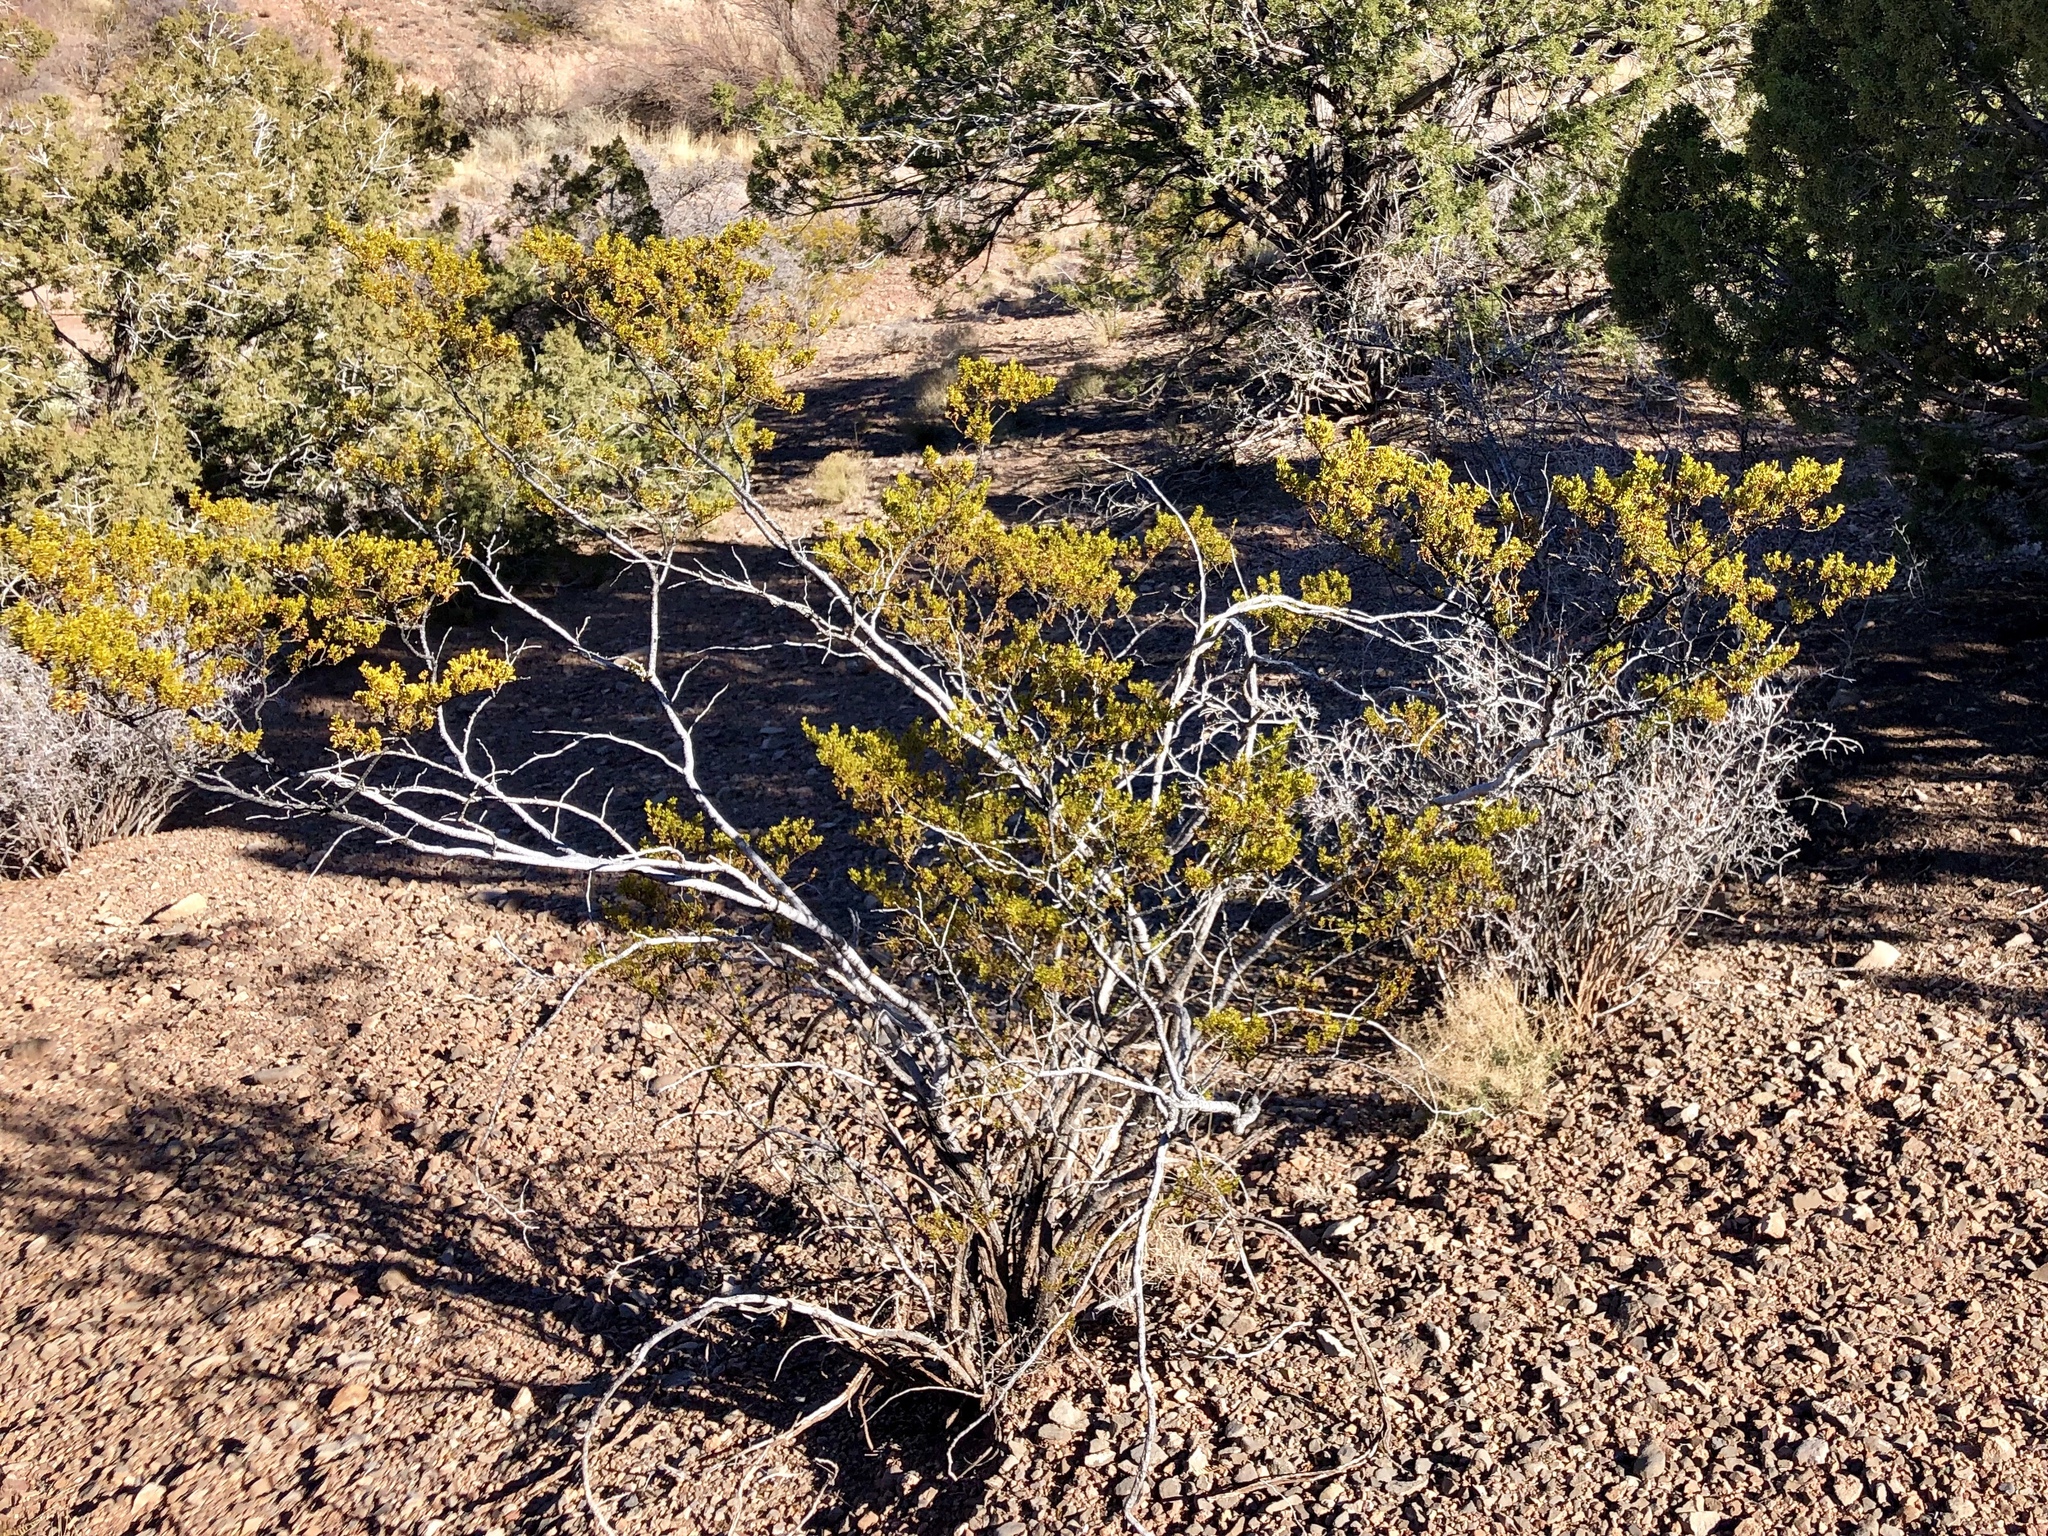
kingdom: Plantae
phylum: Tracheophyta
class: Magnoliopsida
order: Zygophyllales
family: Zygophyllaceae
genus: Larrea
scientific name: Larrea tridentata
